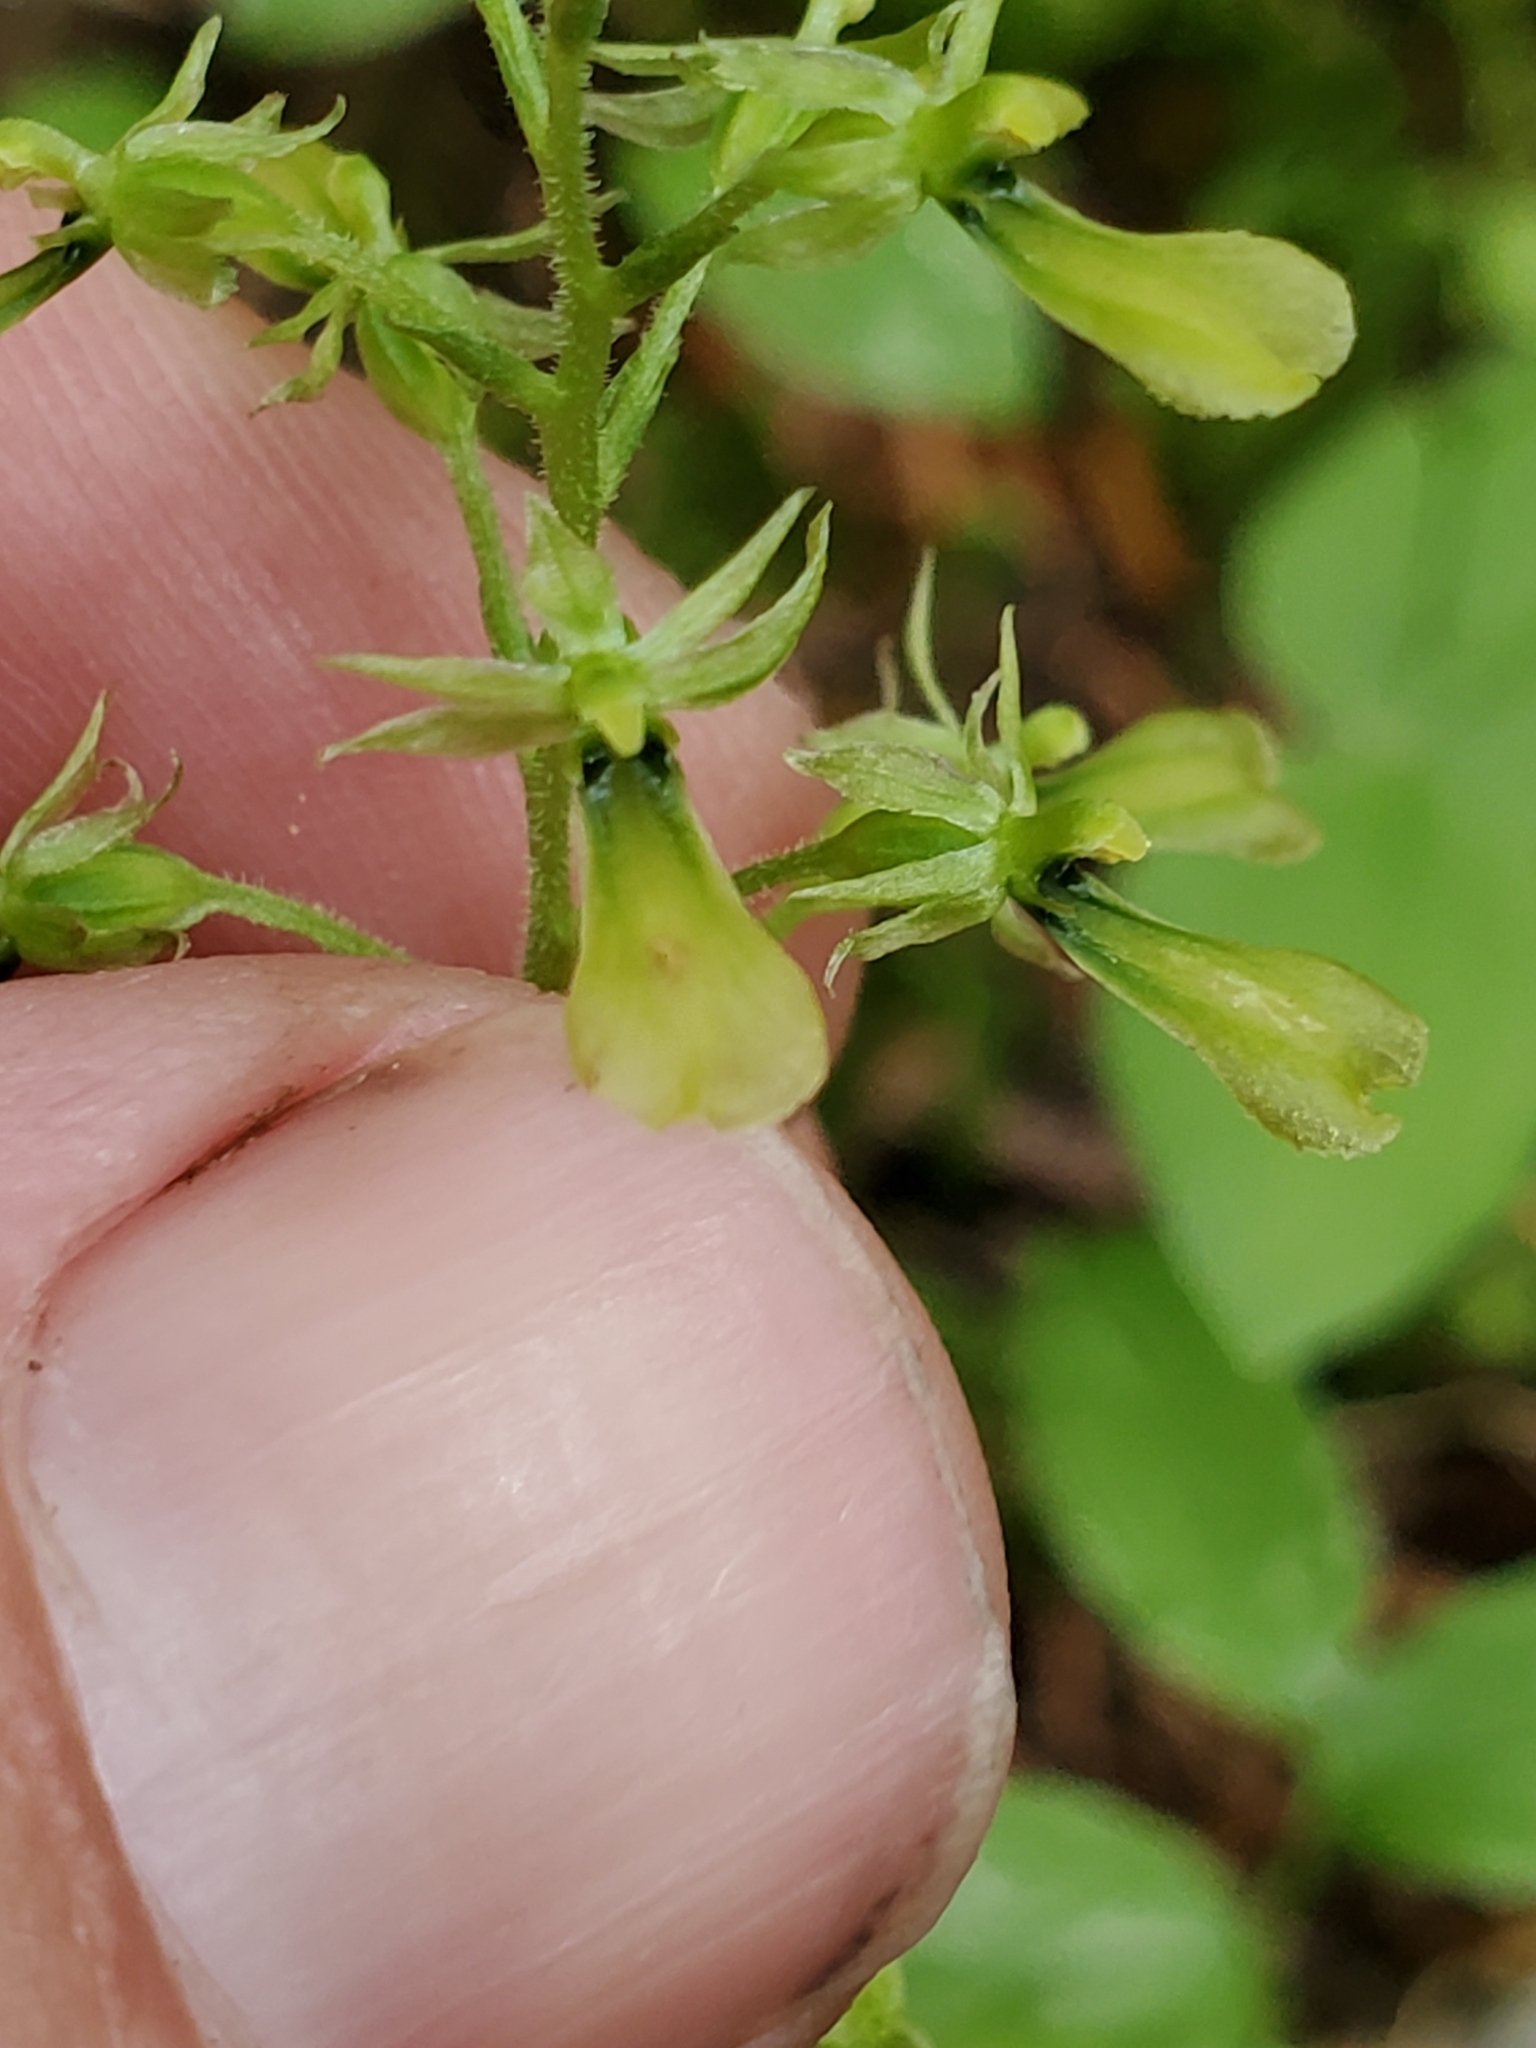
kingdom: Plantae
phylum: Tracheophyta
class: Liliopsida
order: Asparagales
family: Orchidaceae
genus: Neottia
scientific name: Neottia banksiana
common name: Northwestern twayblade
